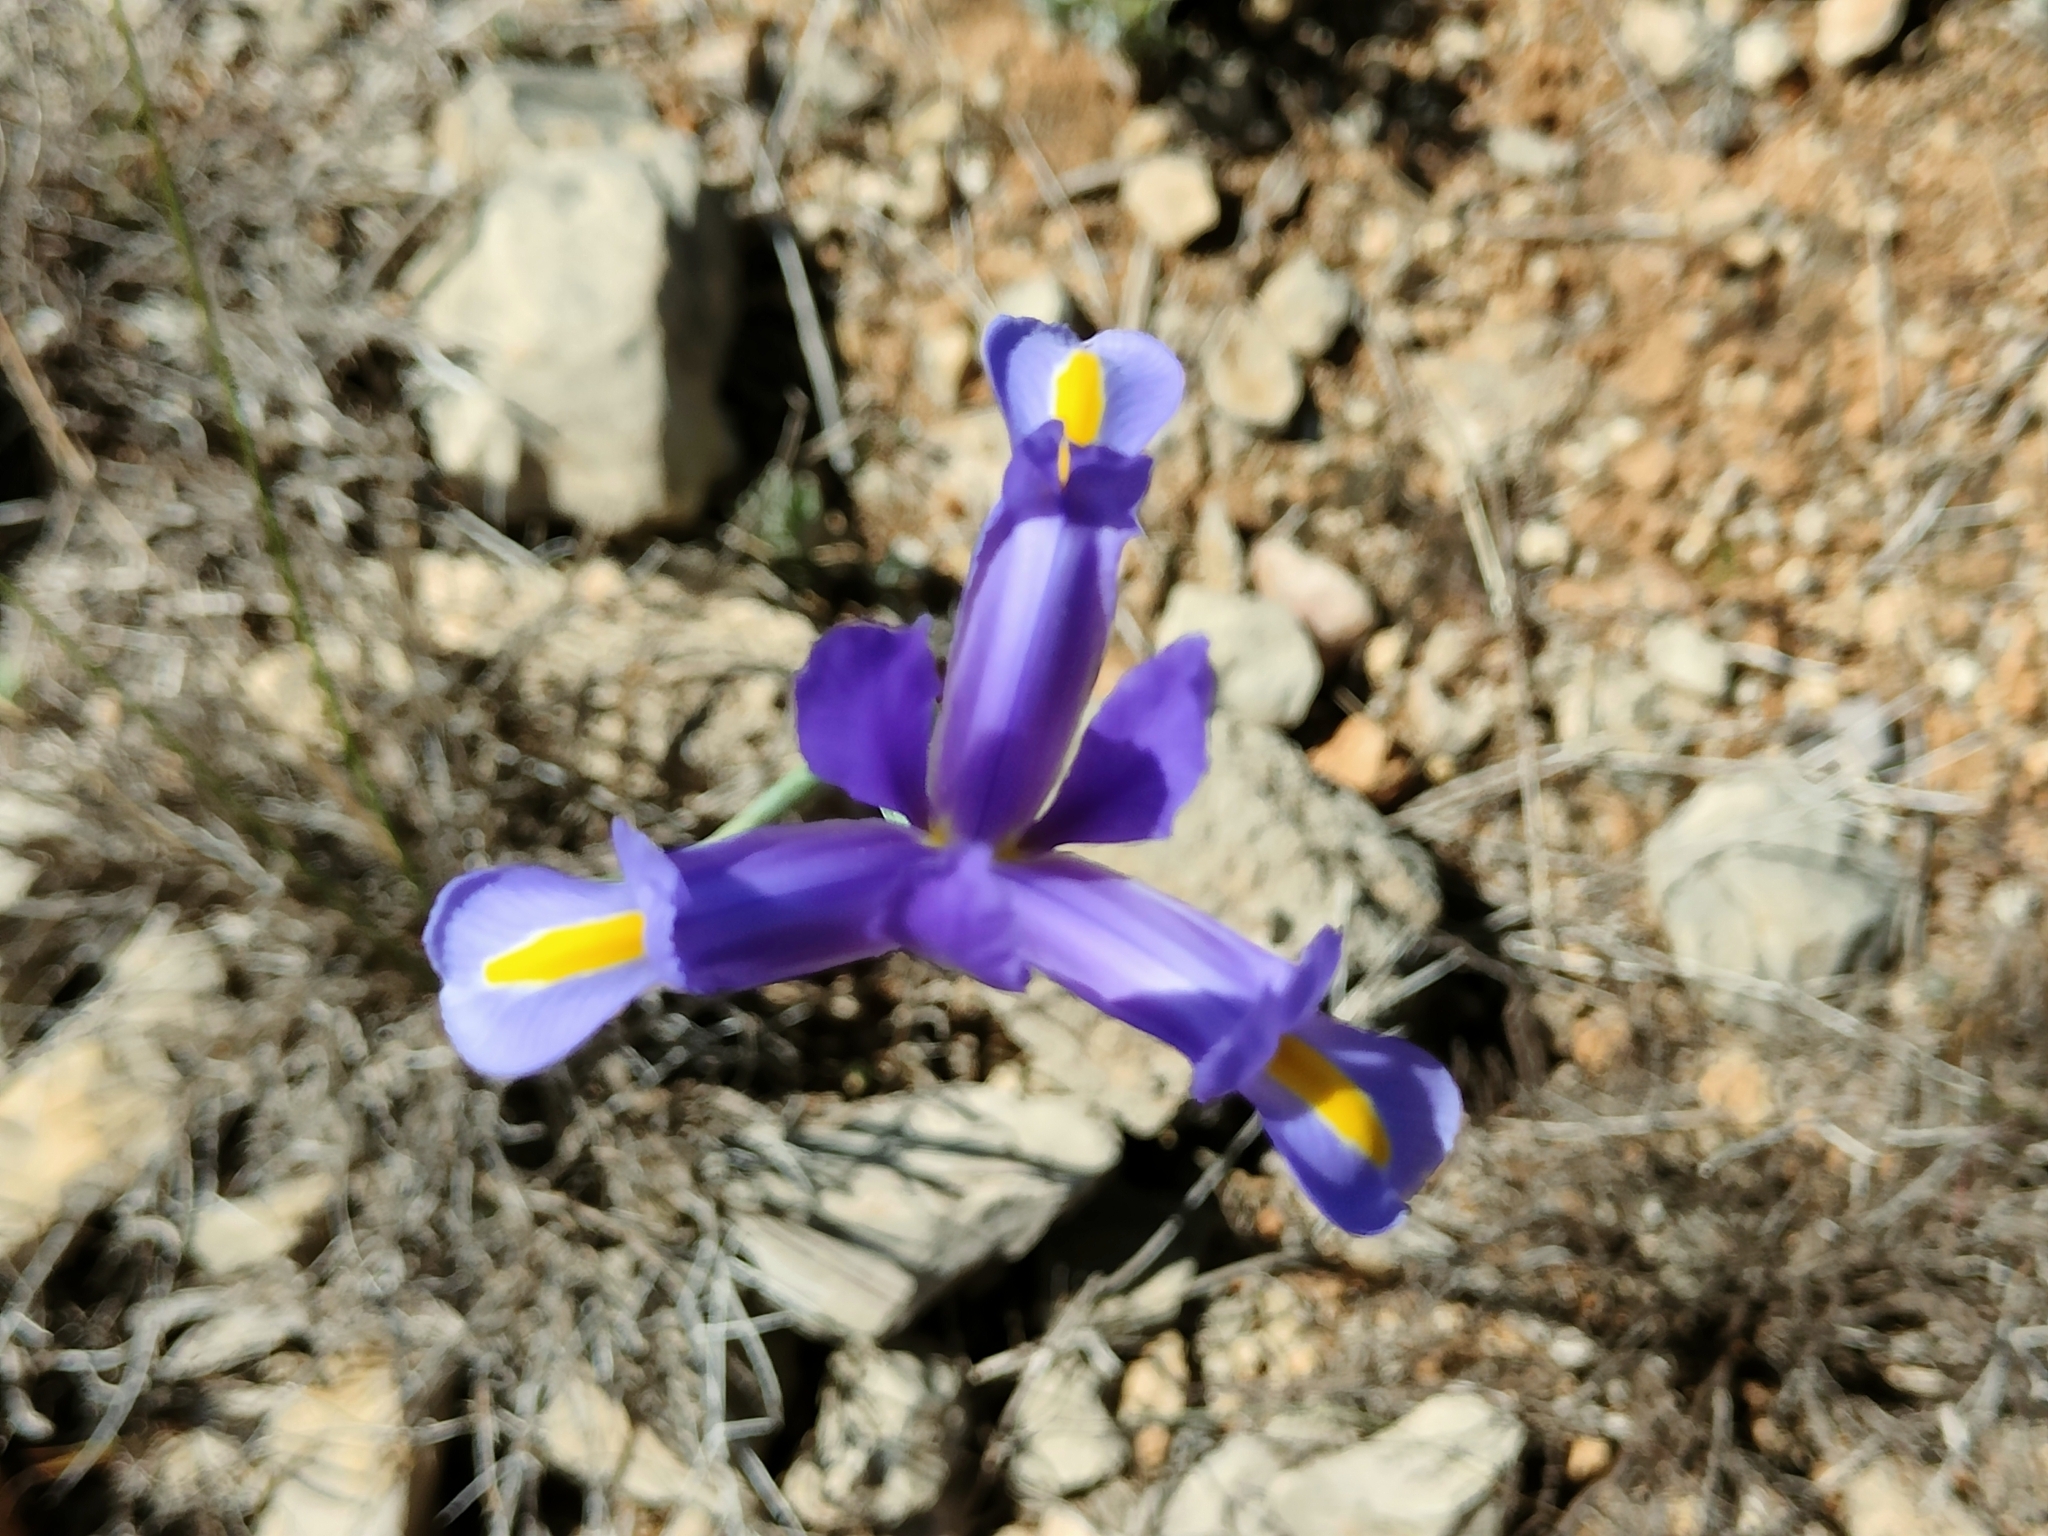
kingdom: Plantae
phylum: Tracheophyta
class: Liliopsida
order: Asparagales
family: Iridaceae
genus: Iris
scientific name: Iris xiphium
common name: Spanish iris
